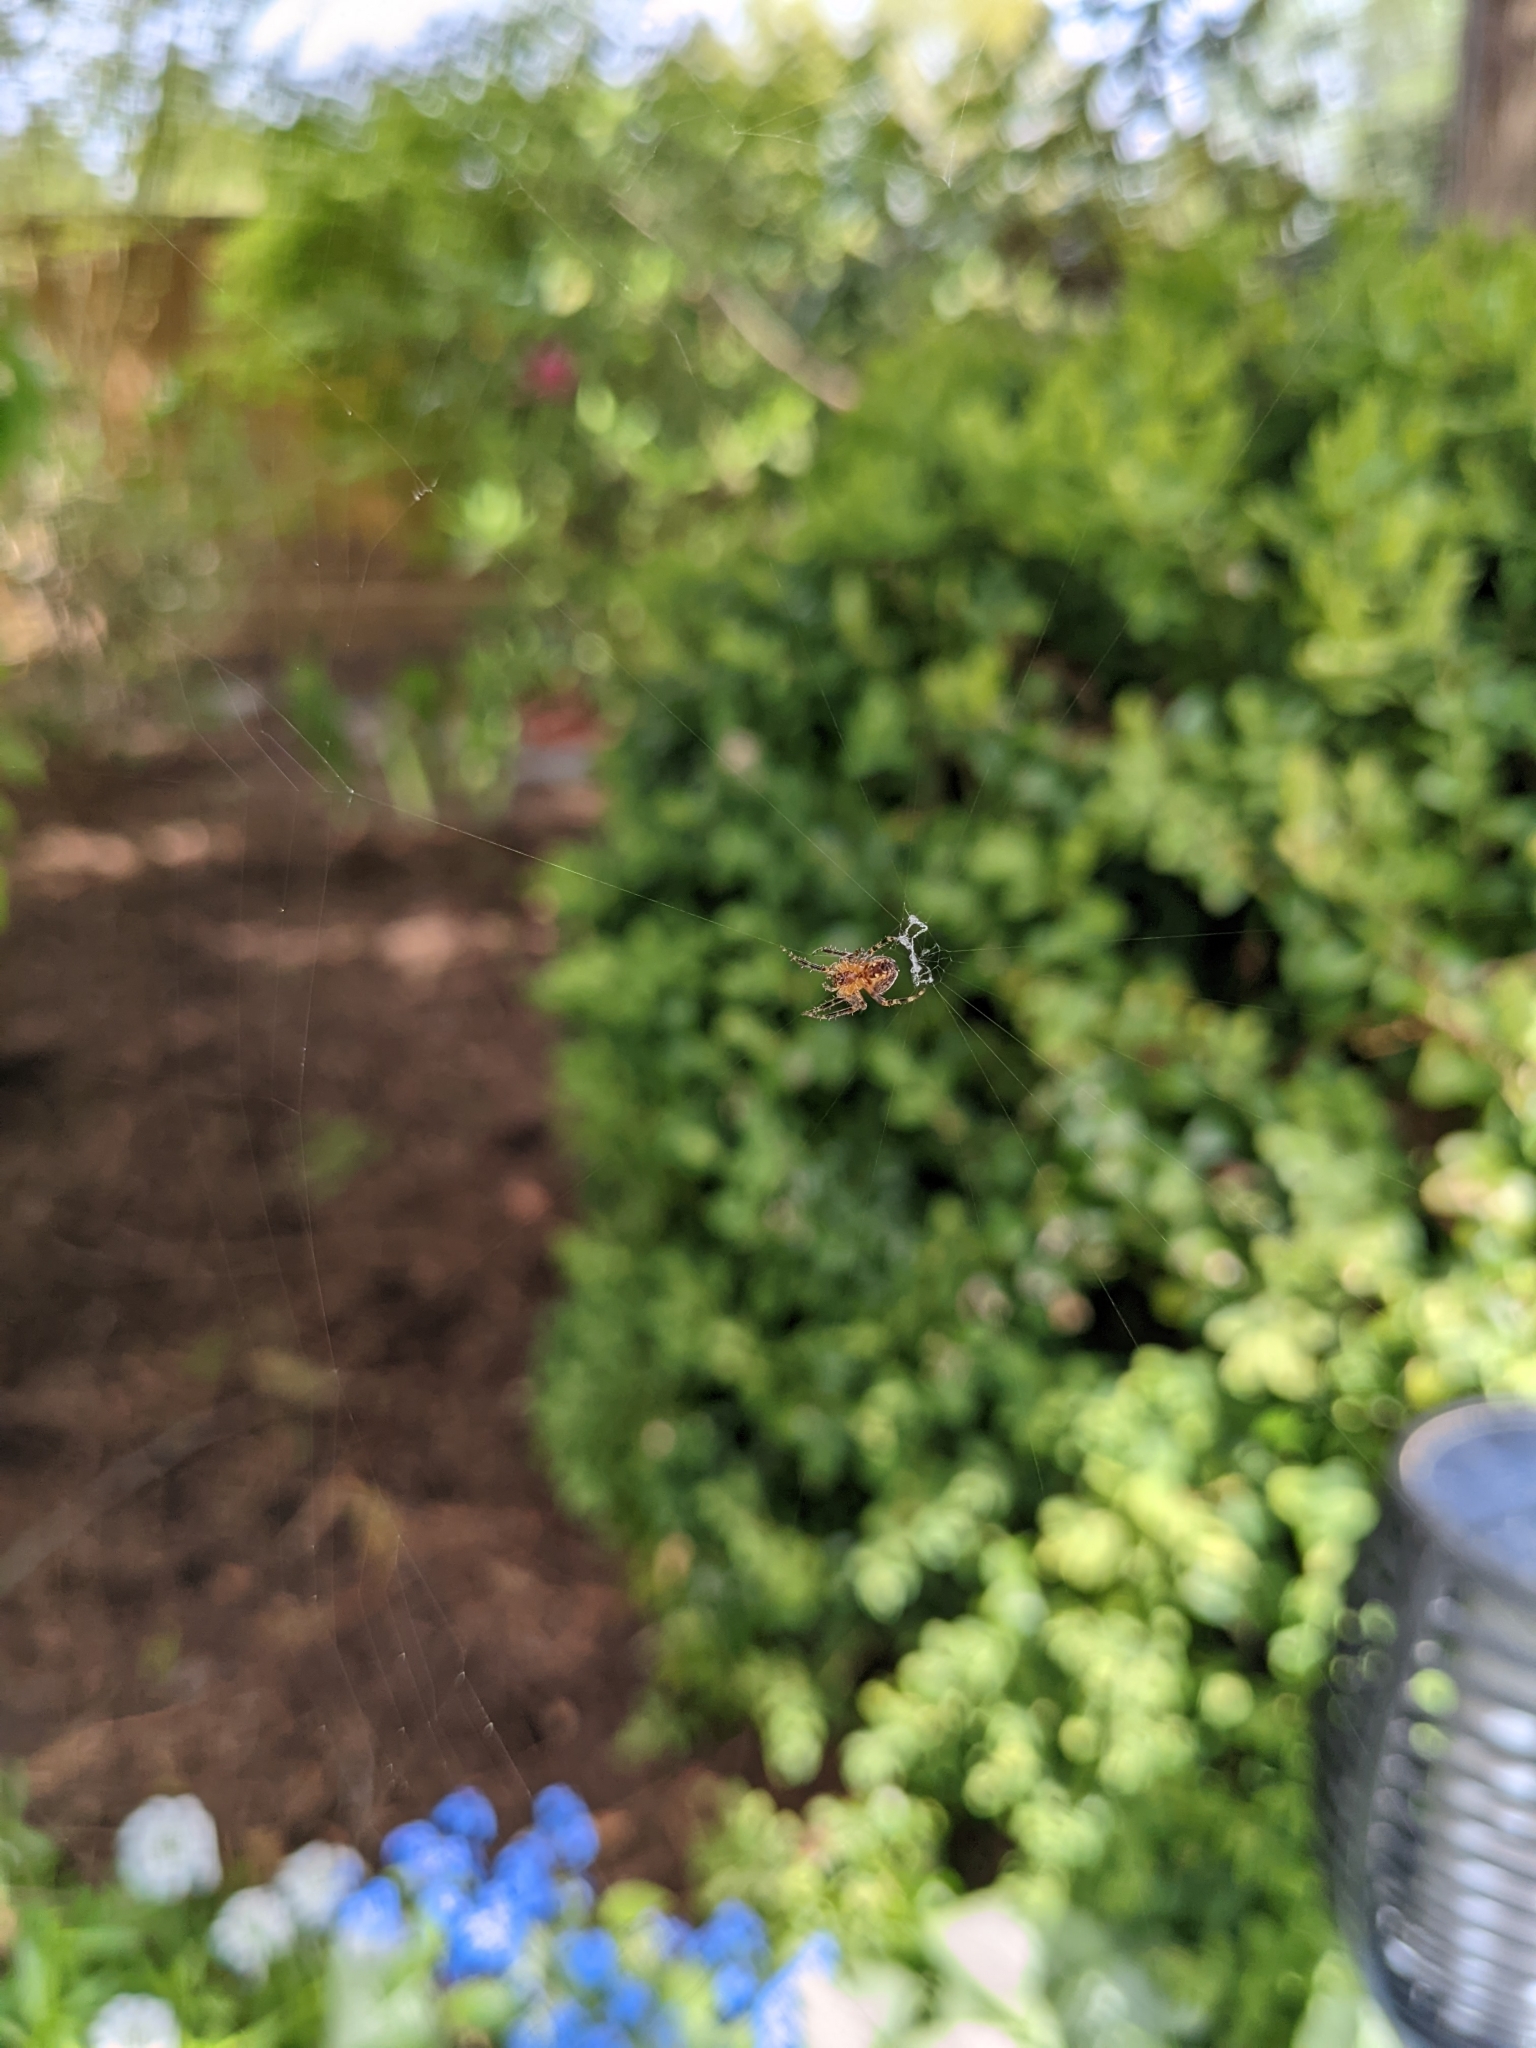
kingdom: Animalia
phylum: Arthropoda
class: Arachnida
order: Araneae
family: Araneidae
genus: Araneus
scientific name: Araneus diadematus
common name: Cross orbweaver
